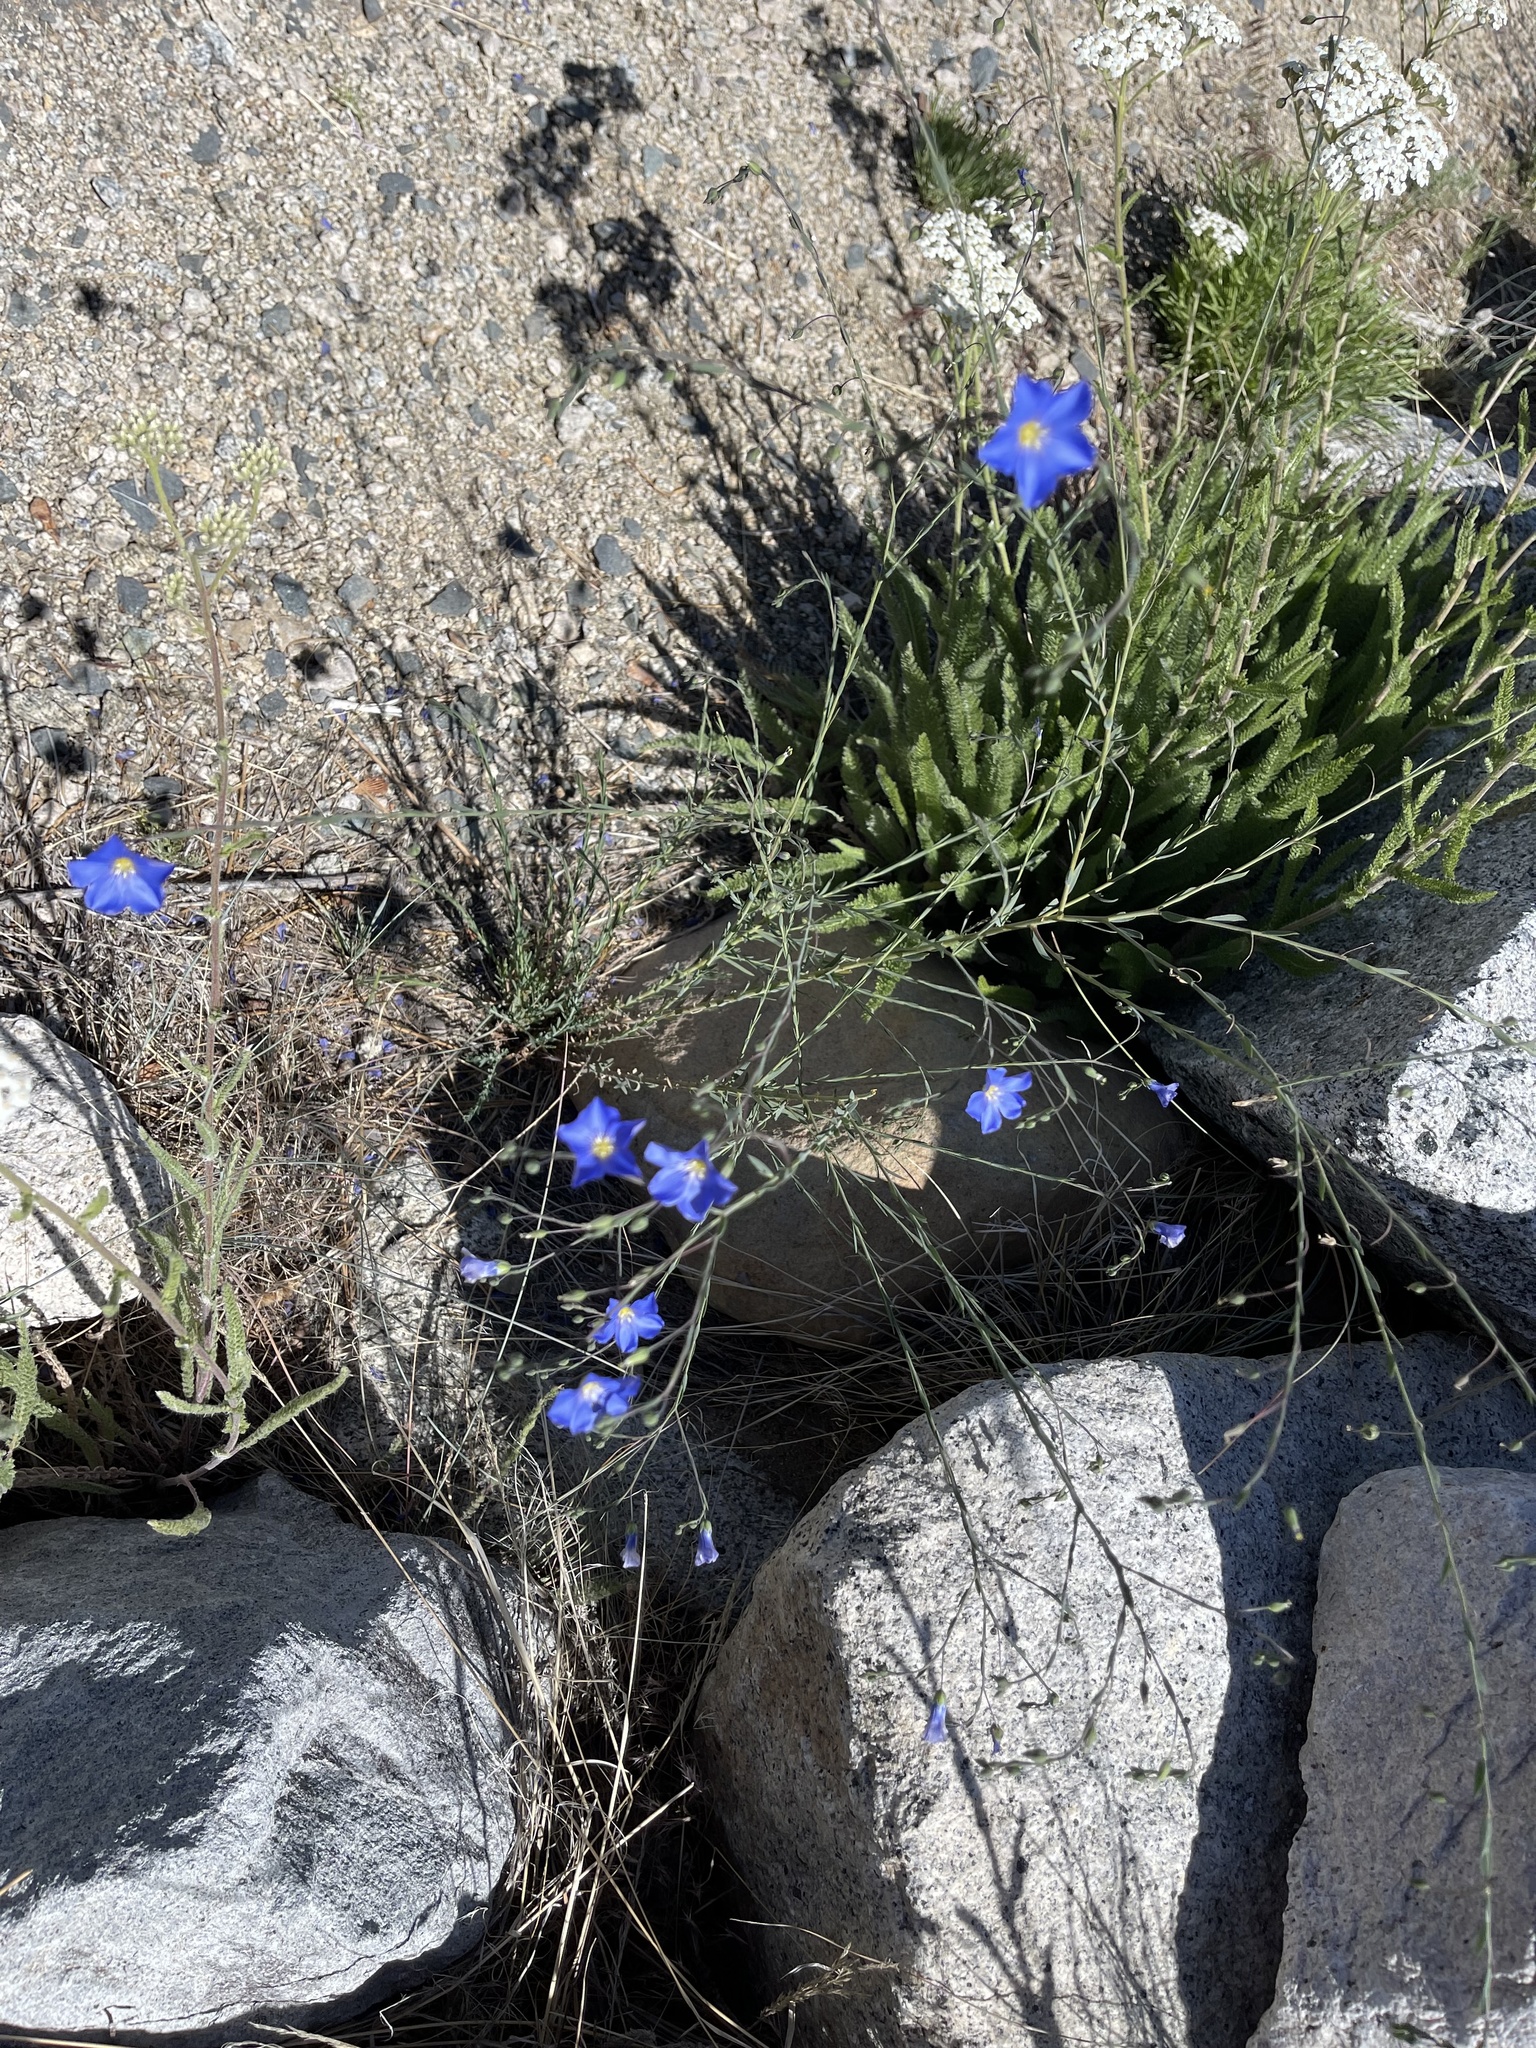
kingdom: Plantae
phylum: Tracheophyta
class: Magnoliopsida
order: Malpighiales
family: Linaceae
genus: Linum
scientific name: Linum lewisii
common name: Prairie flax
